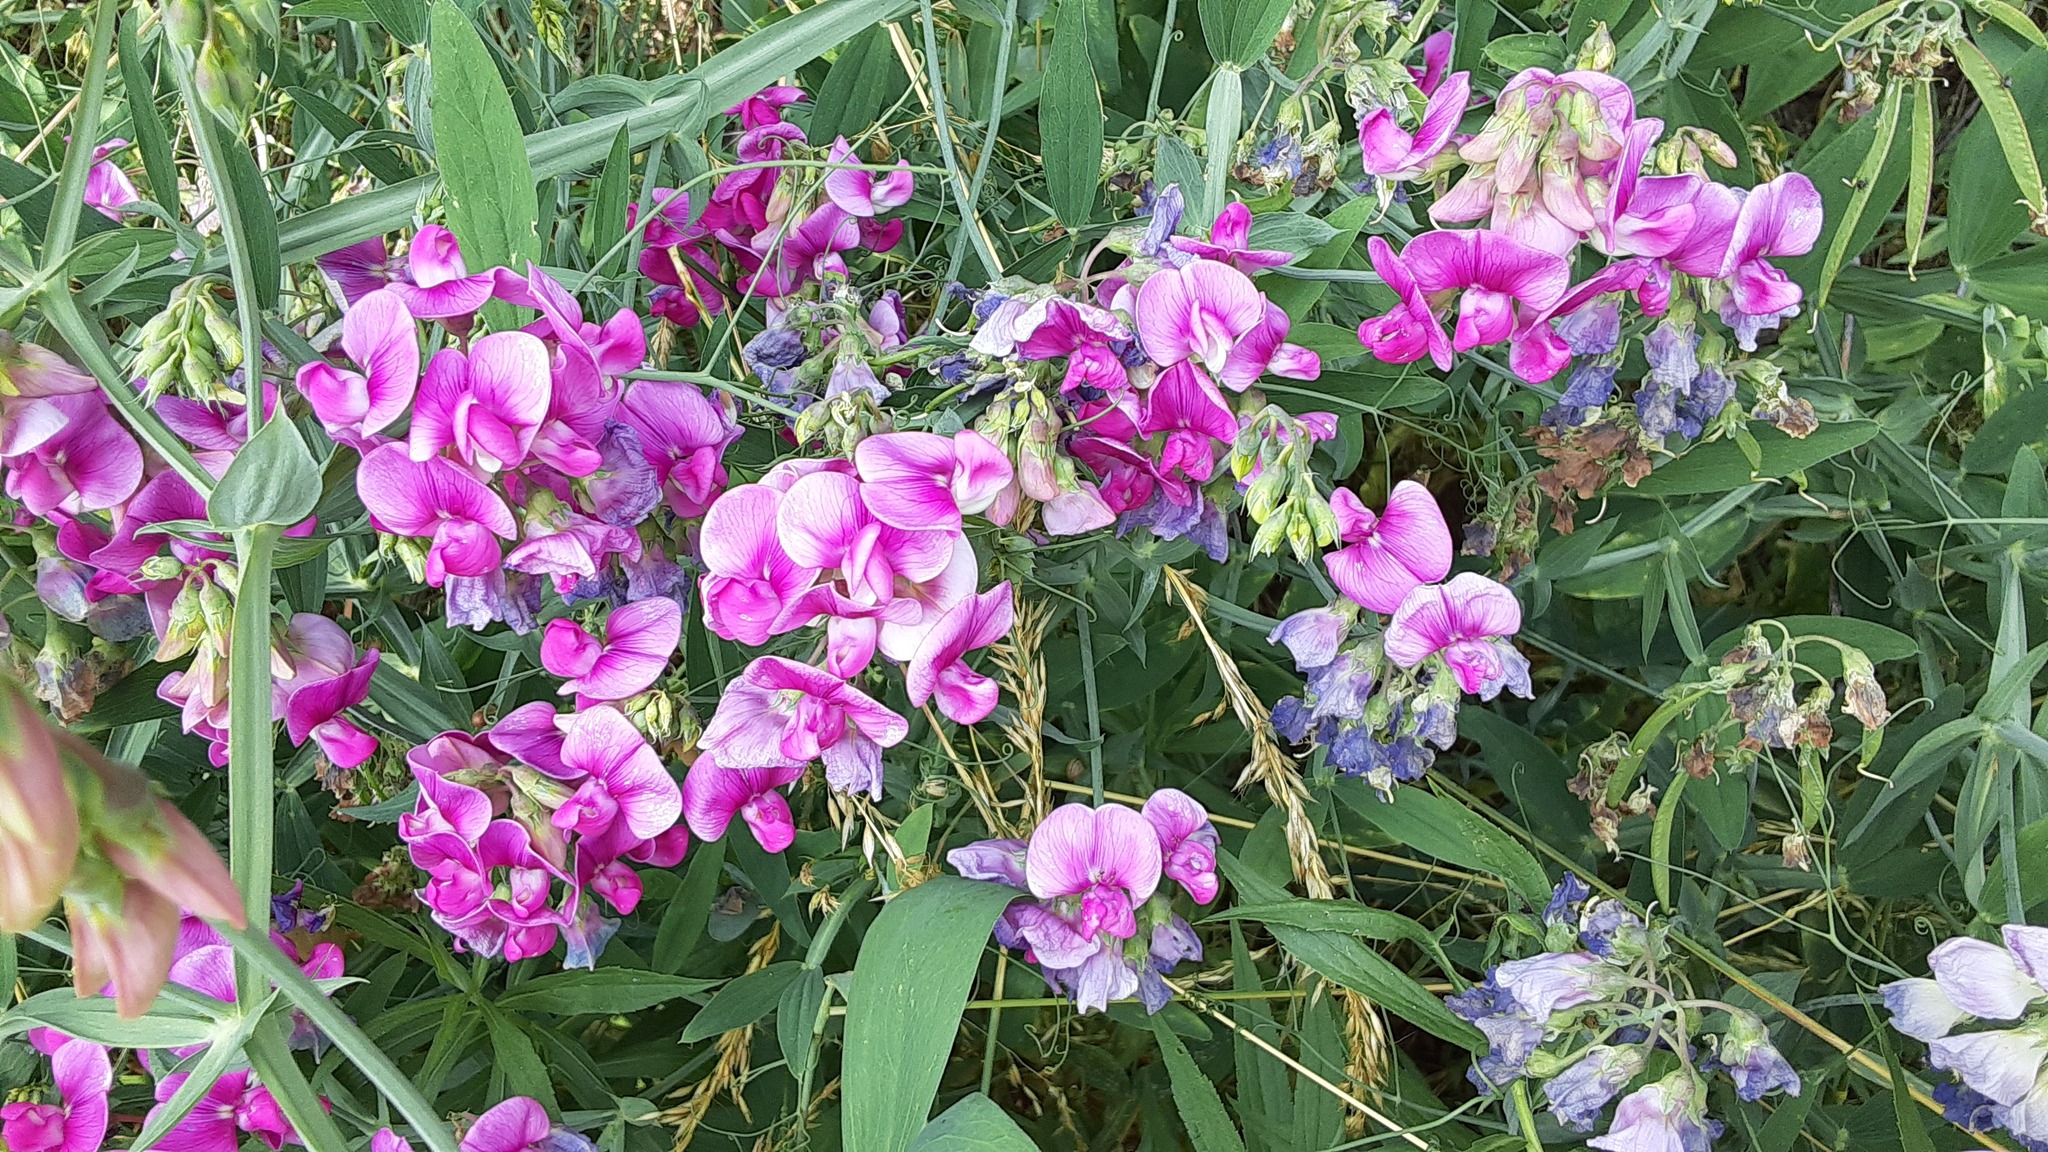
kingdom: Plantae
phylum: Tracheophyta
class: Magnoliopsida
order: Fabales
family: Fabaceae
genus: Lathyrus
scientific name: Lathyrus latifolius
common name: Perennial pea
